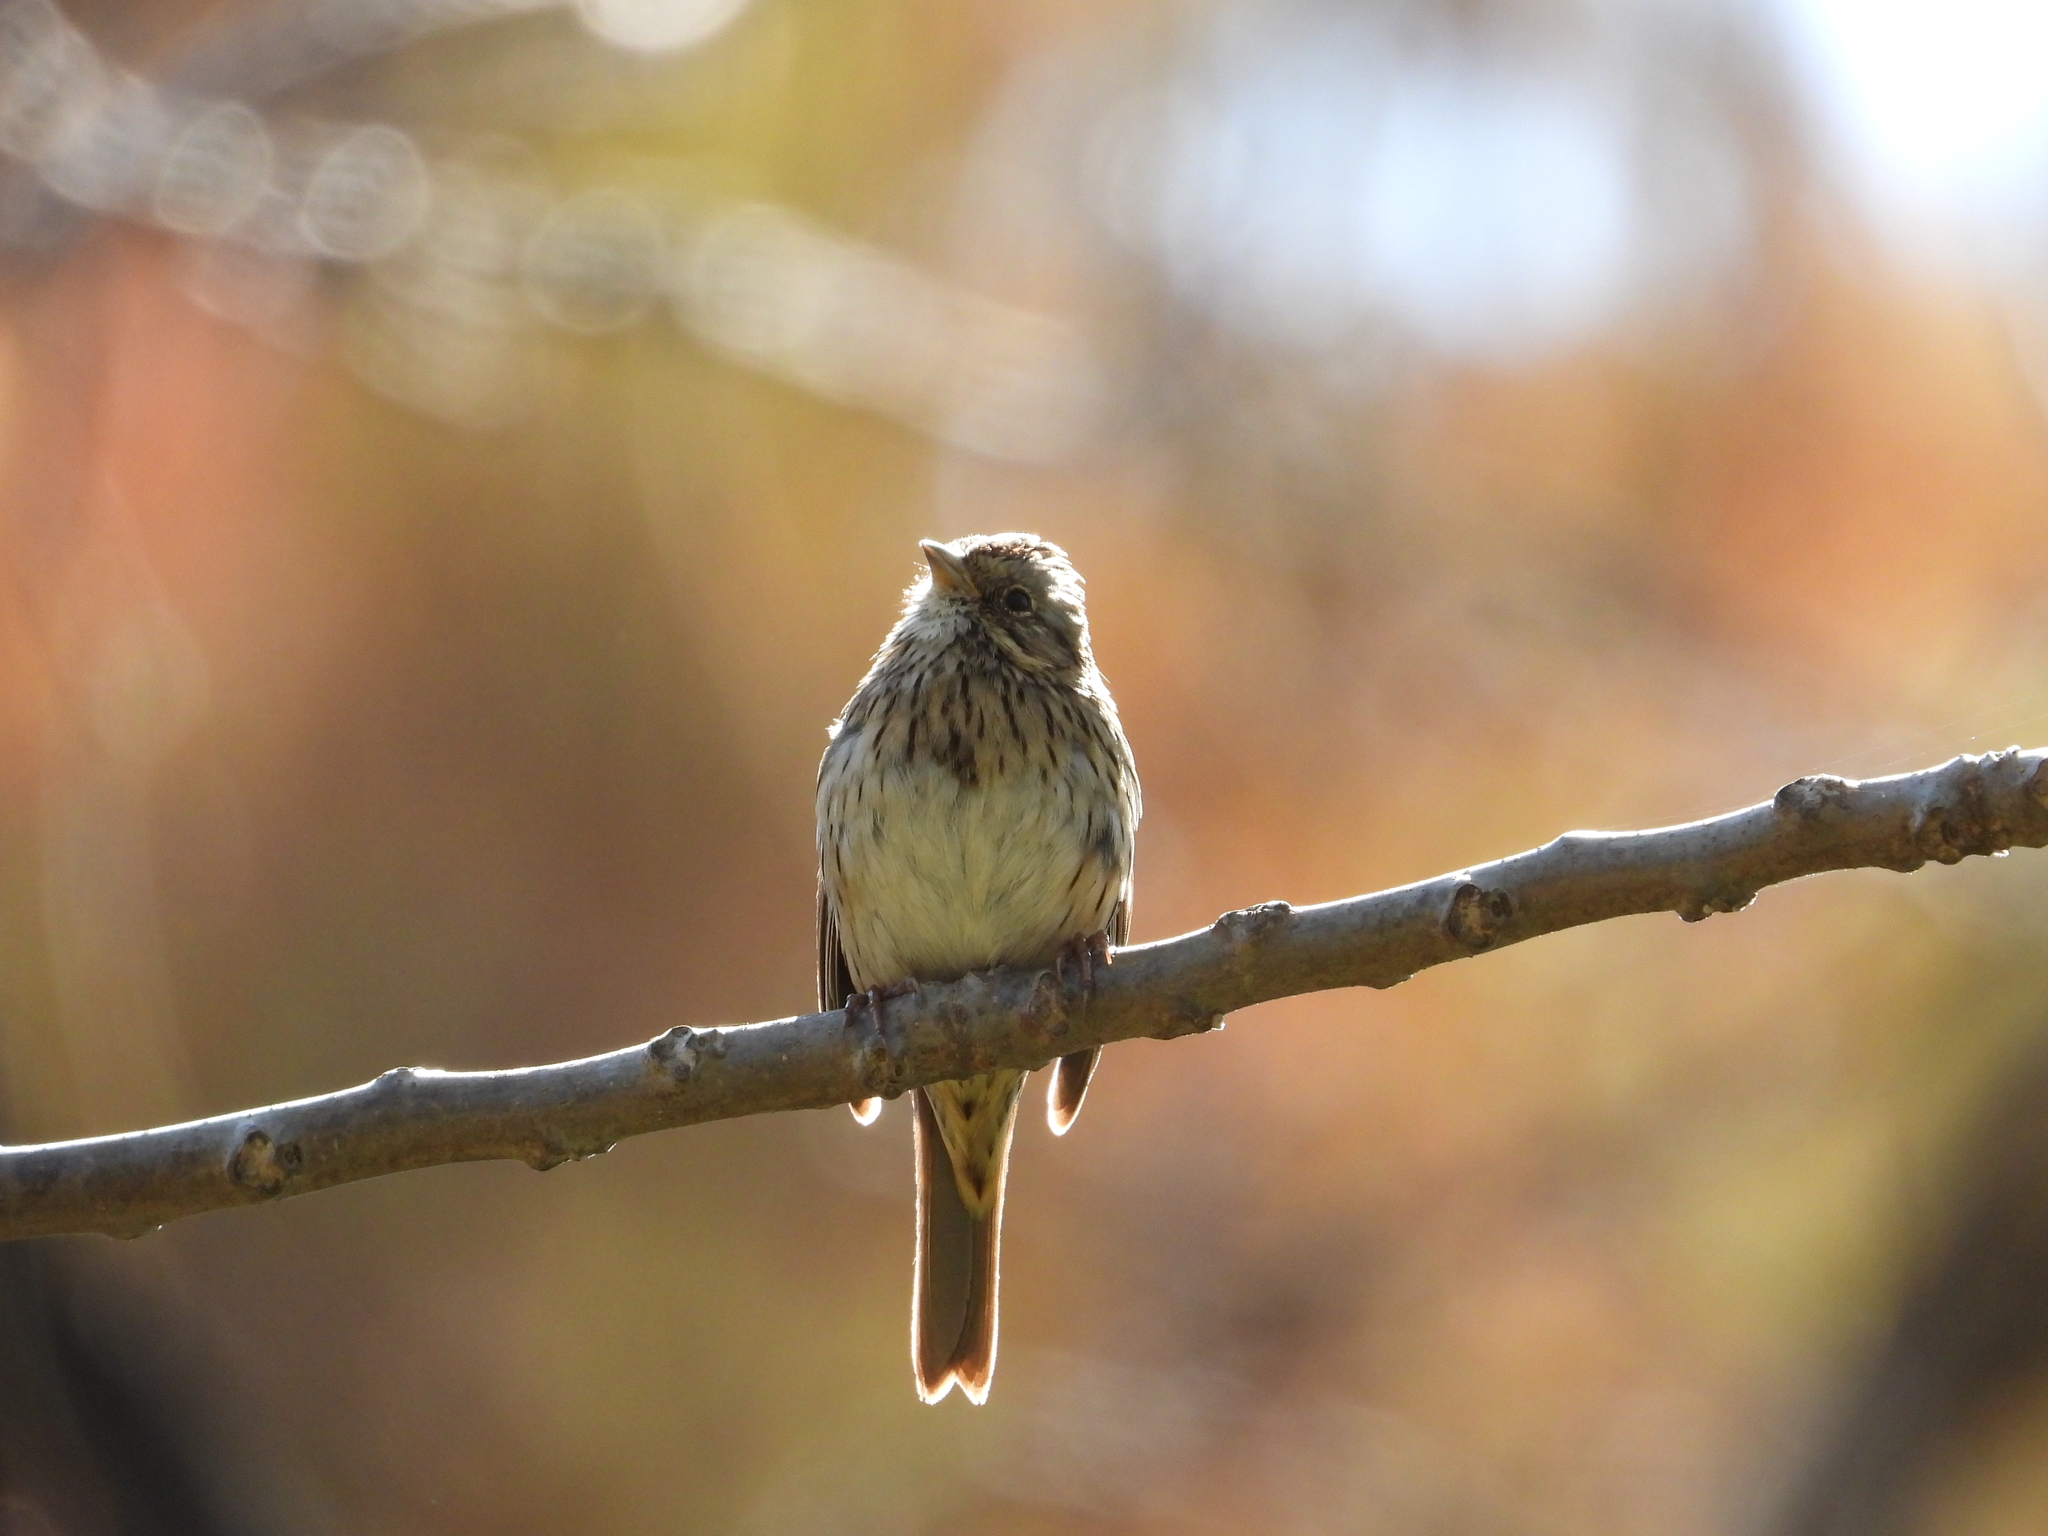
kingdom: Animalia
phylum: Chordata
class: Aves
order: Passeriformes
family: Passerellidae
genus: Melospiza
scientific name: Melospiza lincolnii
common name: Lincoln's sparrow
